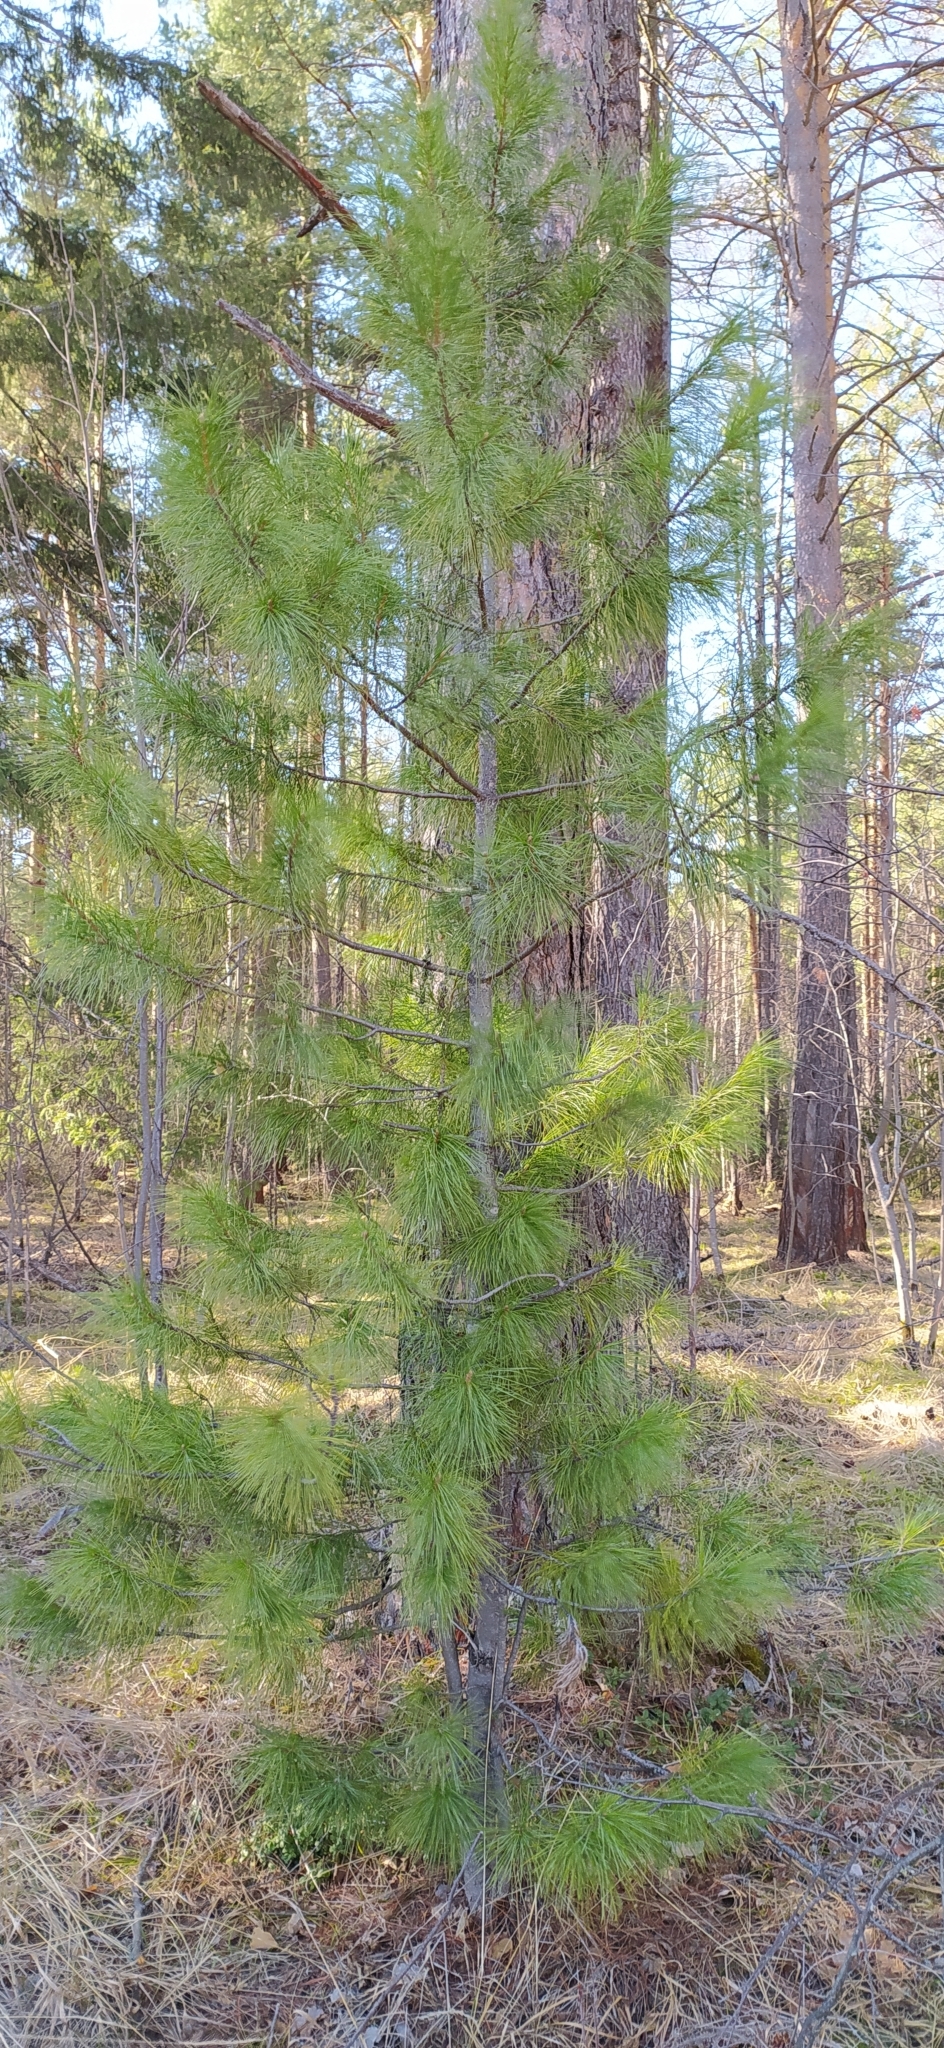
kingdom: Plantae
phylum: Tracheophyta
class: Pinopsida
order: Pinales
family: Pinaceae
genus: Pinus
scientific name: Pinus sibirica
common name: Siberian pine
